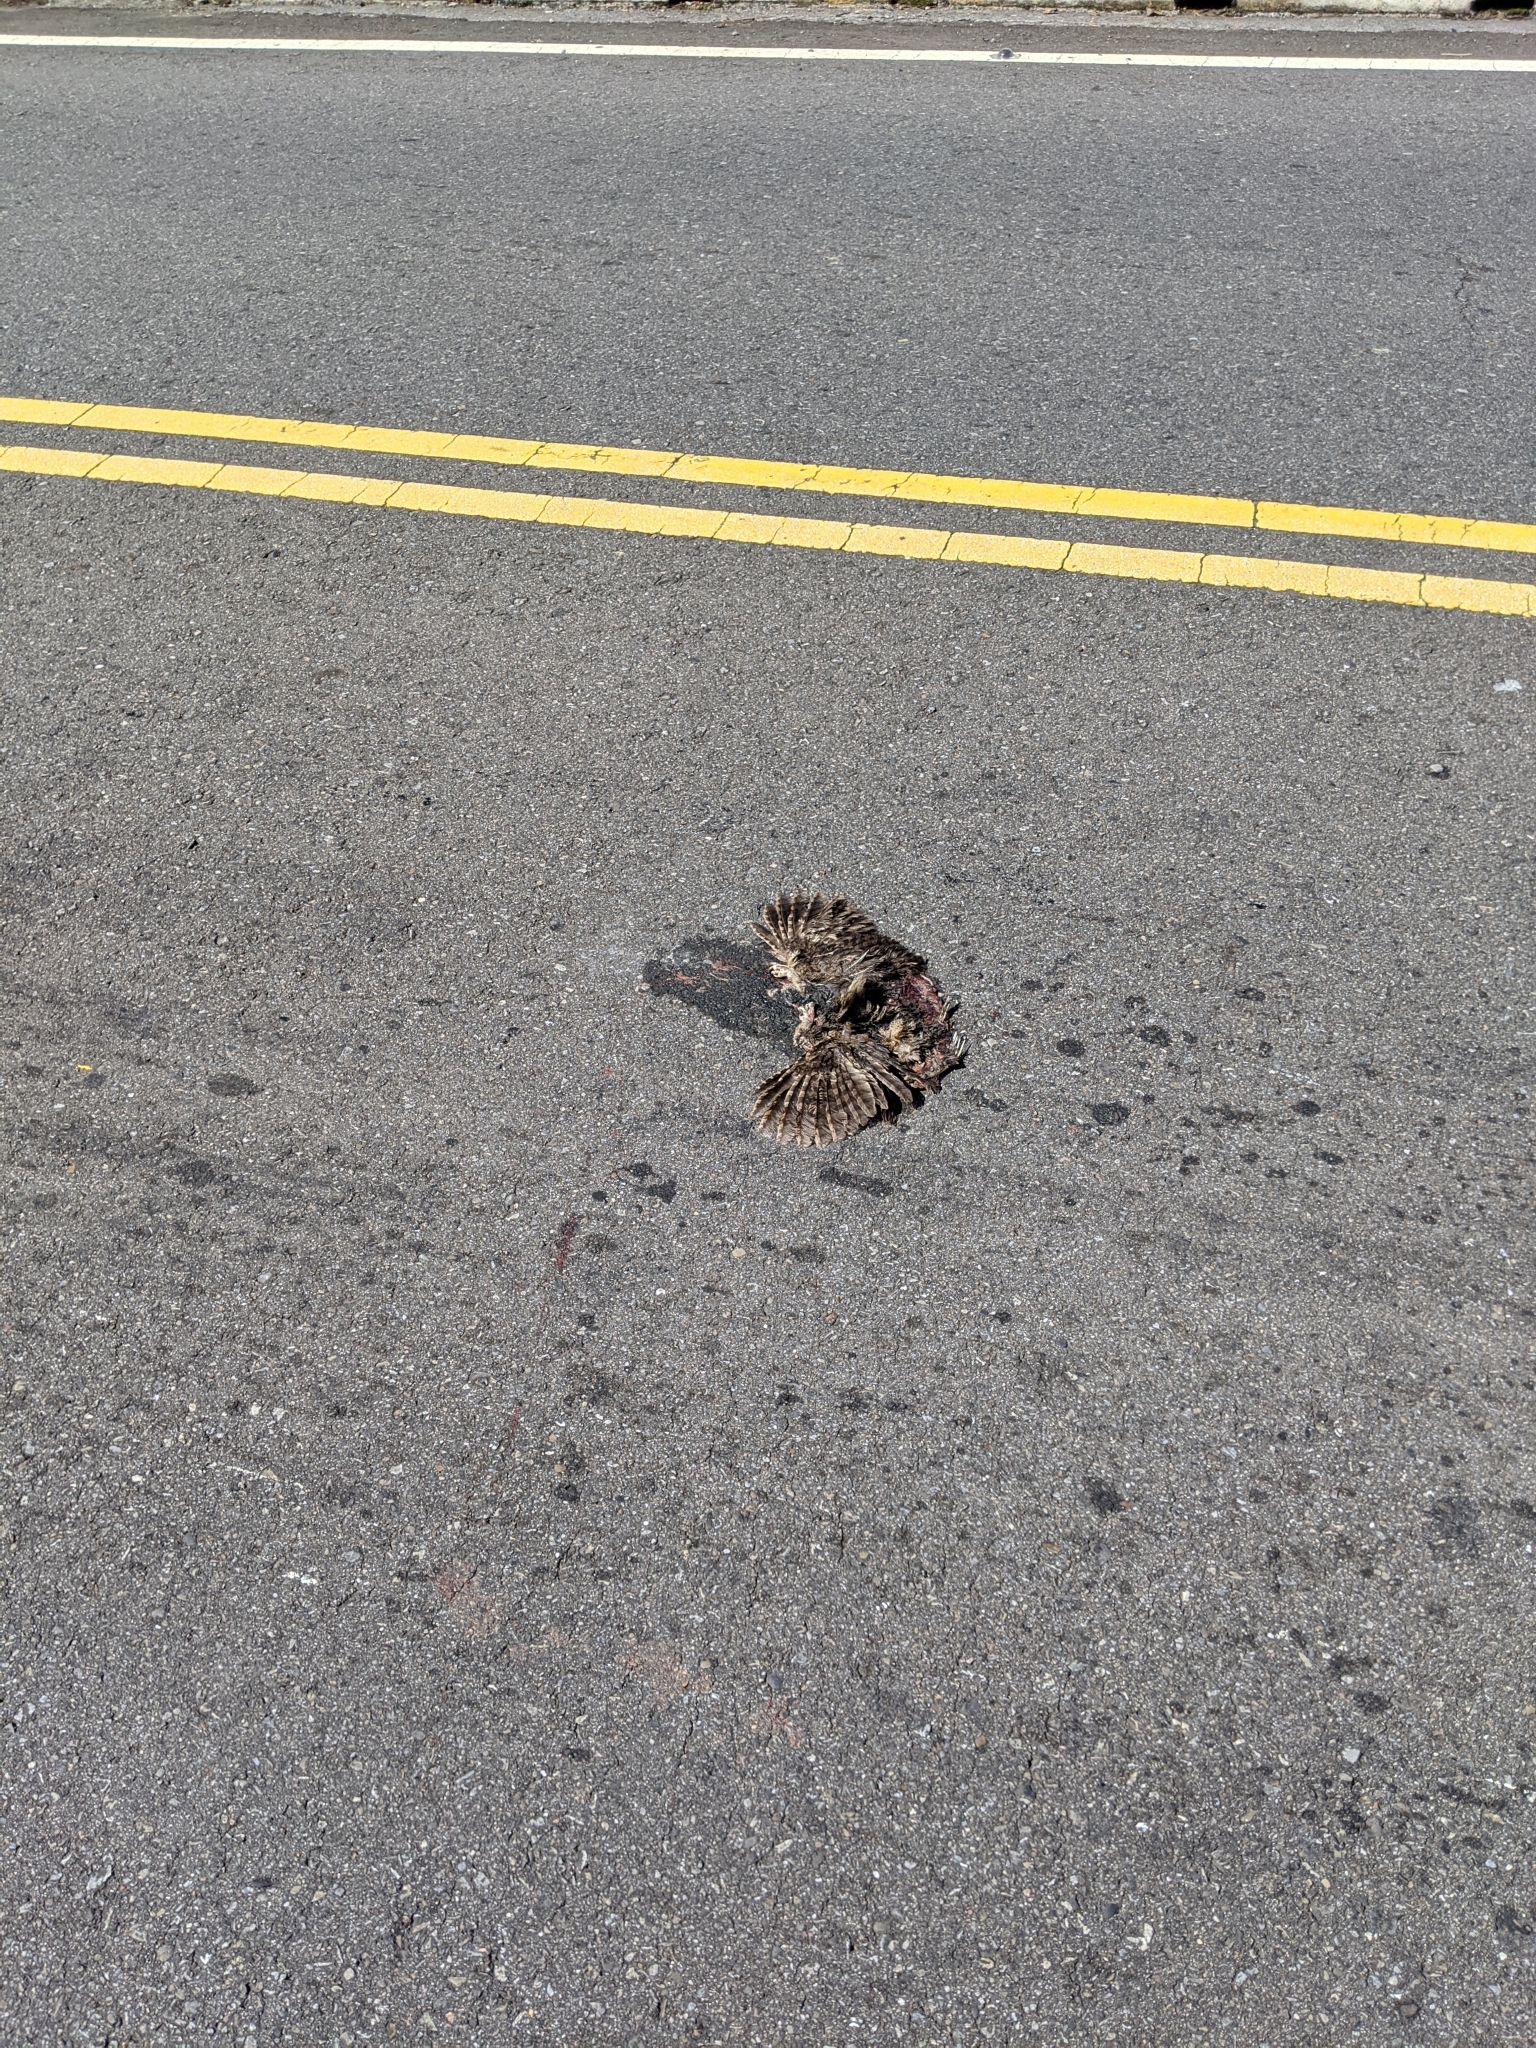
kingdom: Animalia
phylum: Chordata
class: Aves
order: Strigiformes
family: Strigidae
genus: Otus
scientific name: Otus lettia
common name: Collared scops owl
